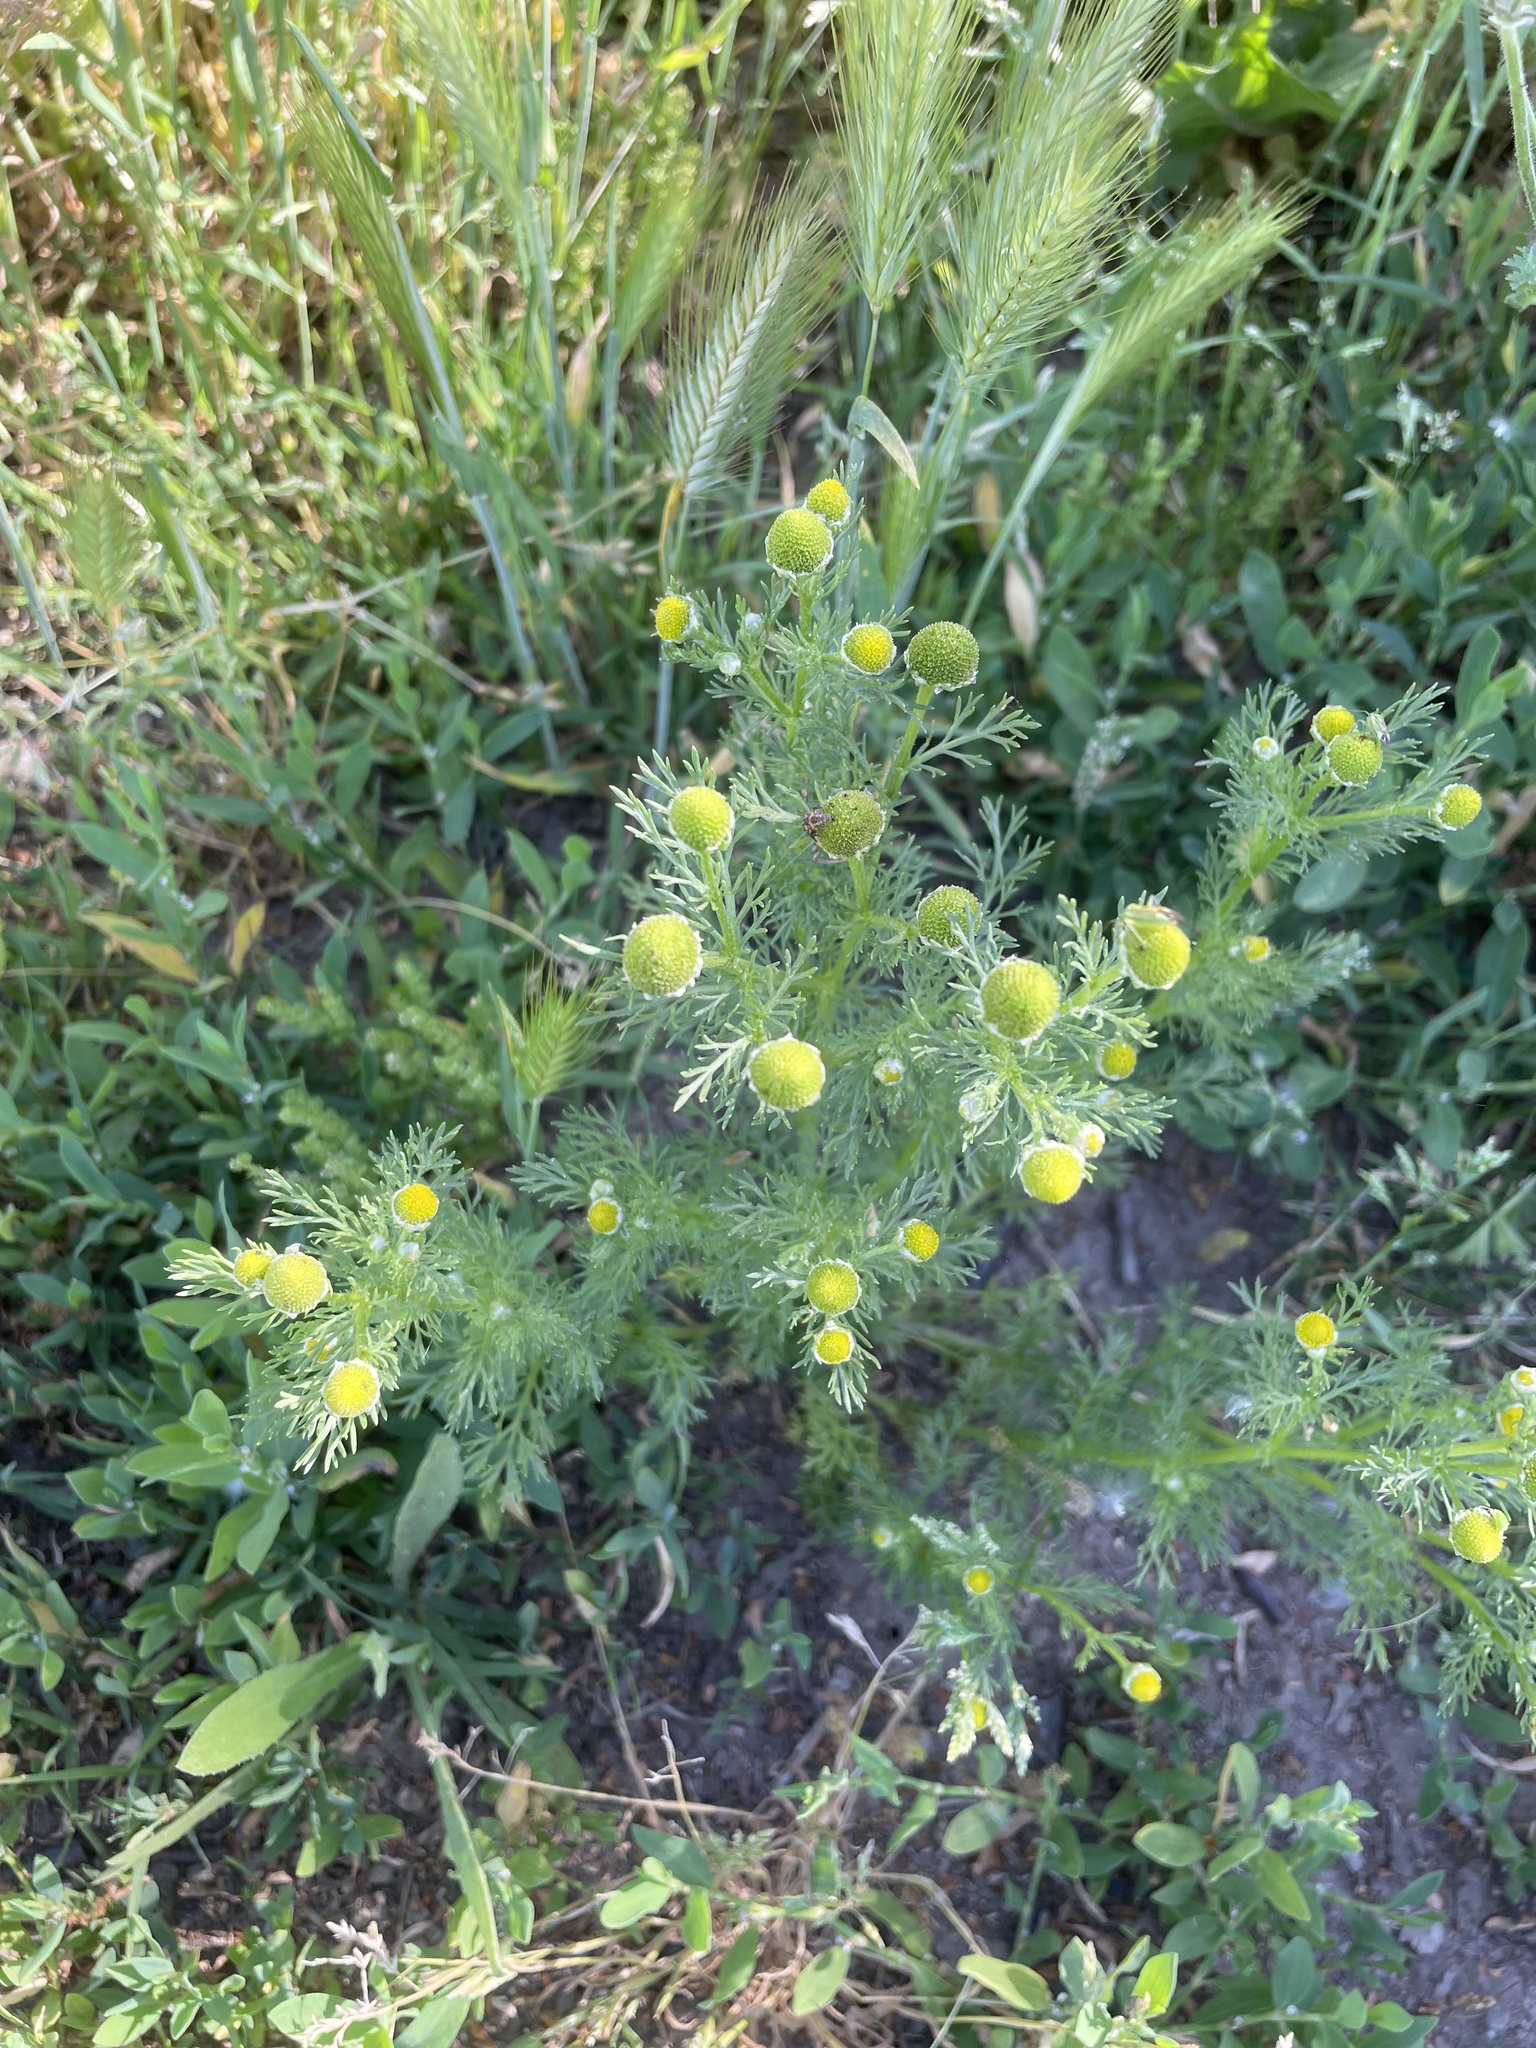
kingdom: Plantae
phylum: Tracheophyta
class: Magnoliopsida
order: Asterales
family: Asteraceae
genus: Matricaria
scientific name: Matricaria discoidea
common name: Disc mayweed
